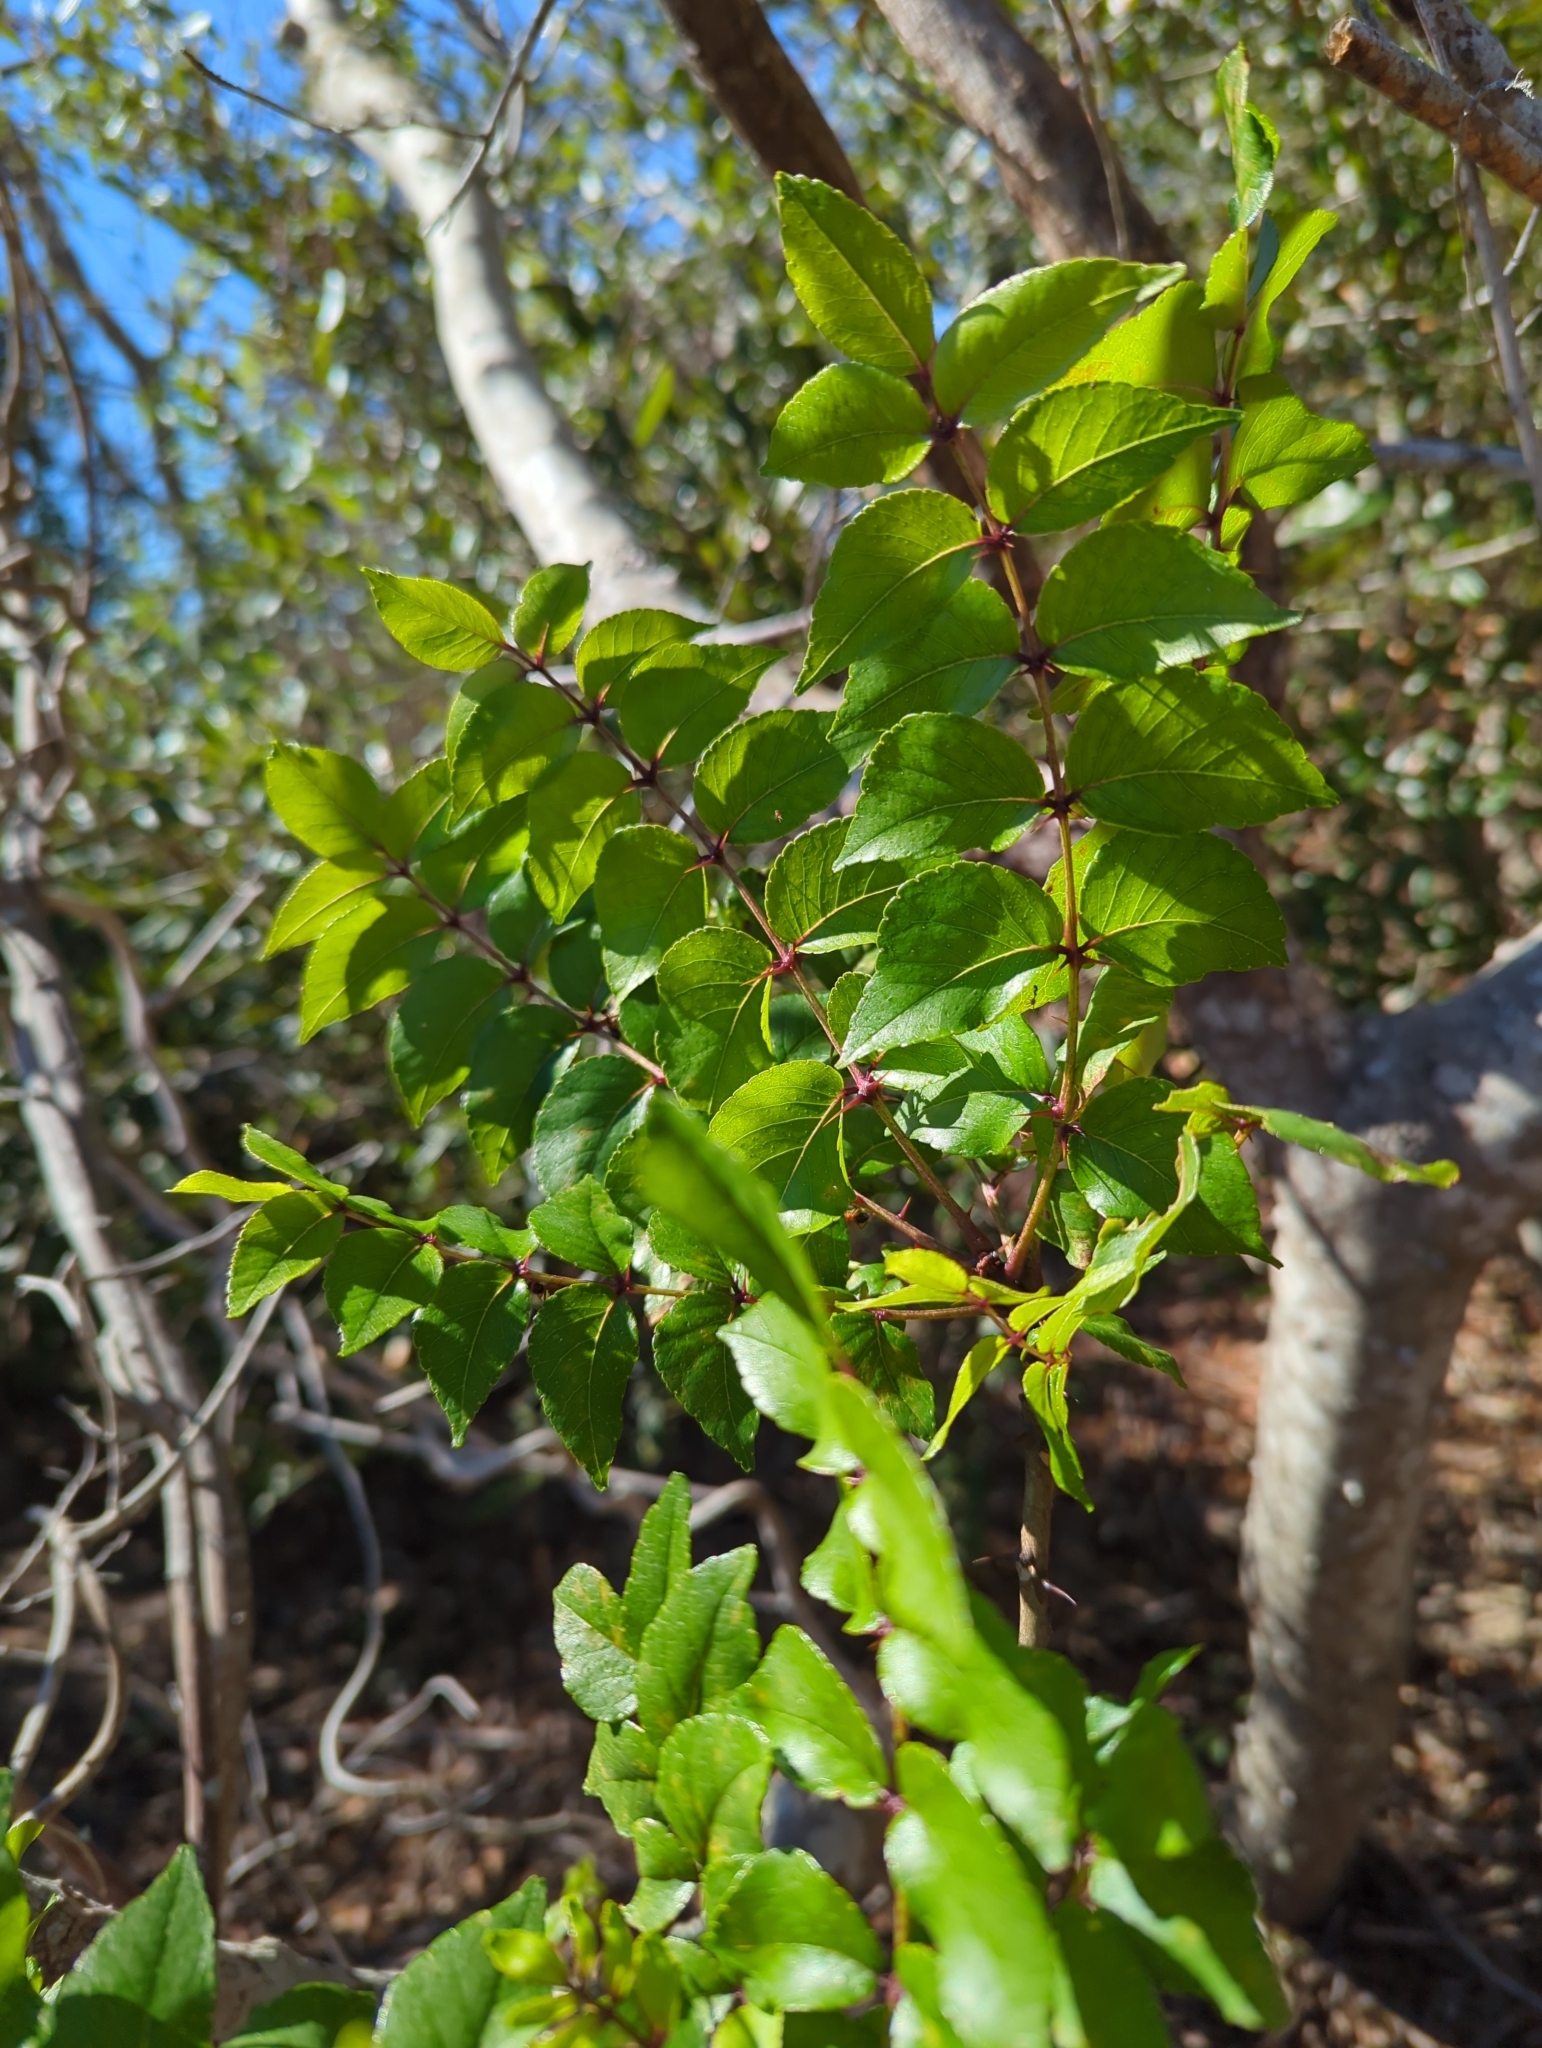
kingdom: Plantae
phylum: Tracheophyta
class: Magnoliopsida
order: Sapindales
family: Rutaceae
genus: Zanthoxylum
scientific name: Zanthoxylum clava-herculis
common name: Hercules'-club
